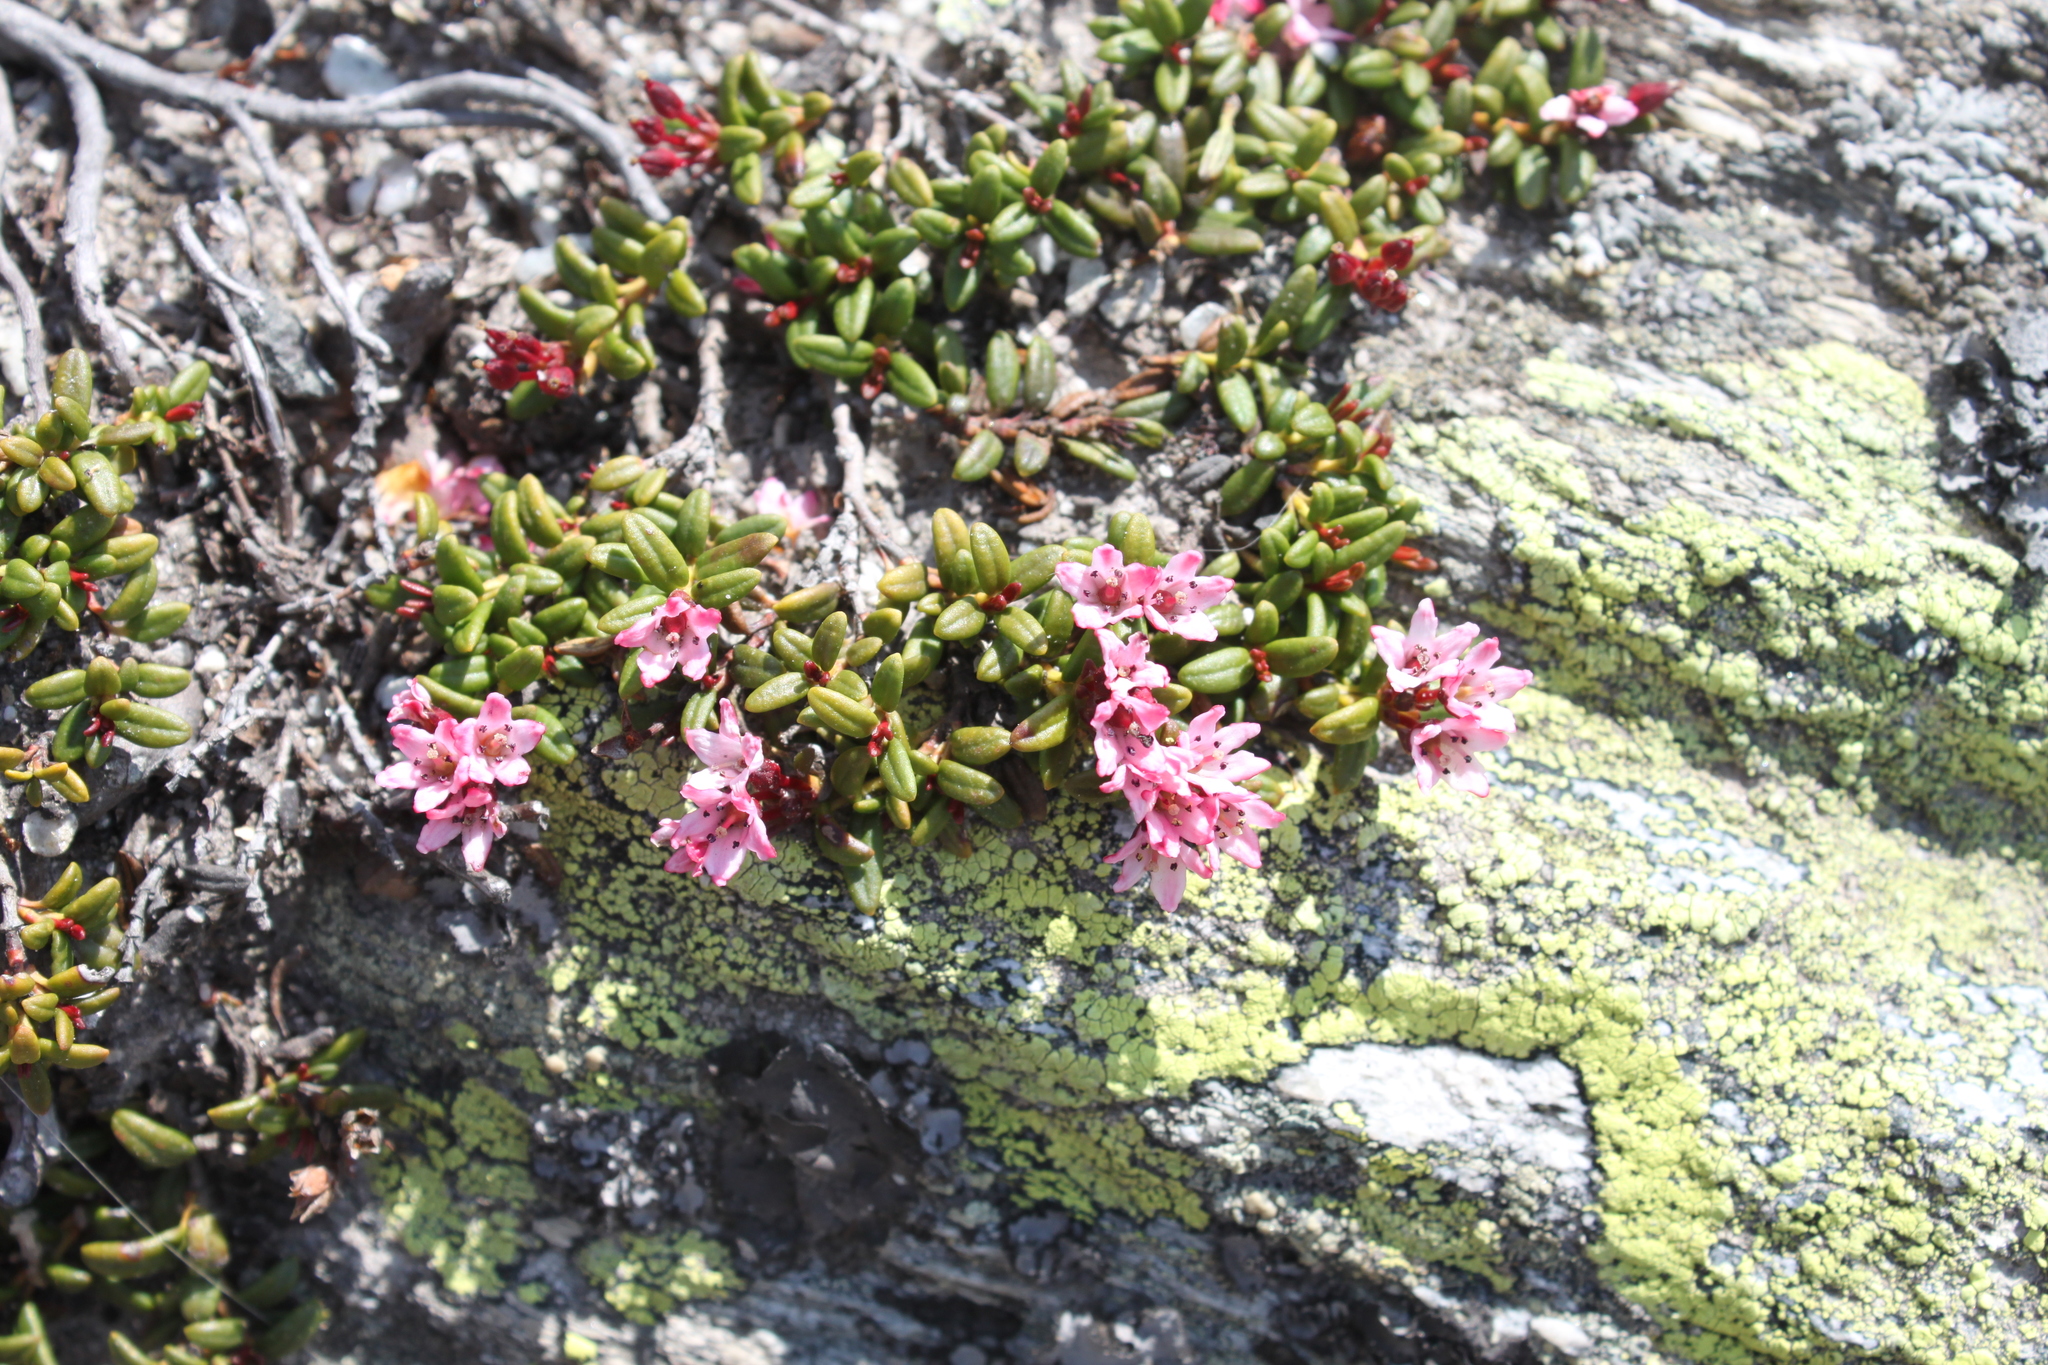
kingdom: Plantae
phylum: Tracheophyta
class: Magnoliopsida
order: Ericales
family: Ericaceae
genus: Kalmia
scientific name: Kalmia procumbens
